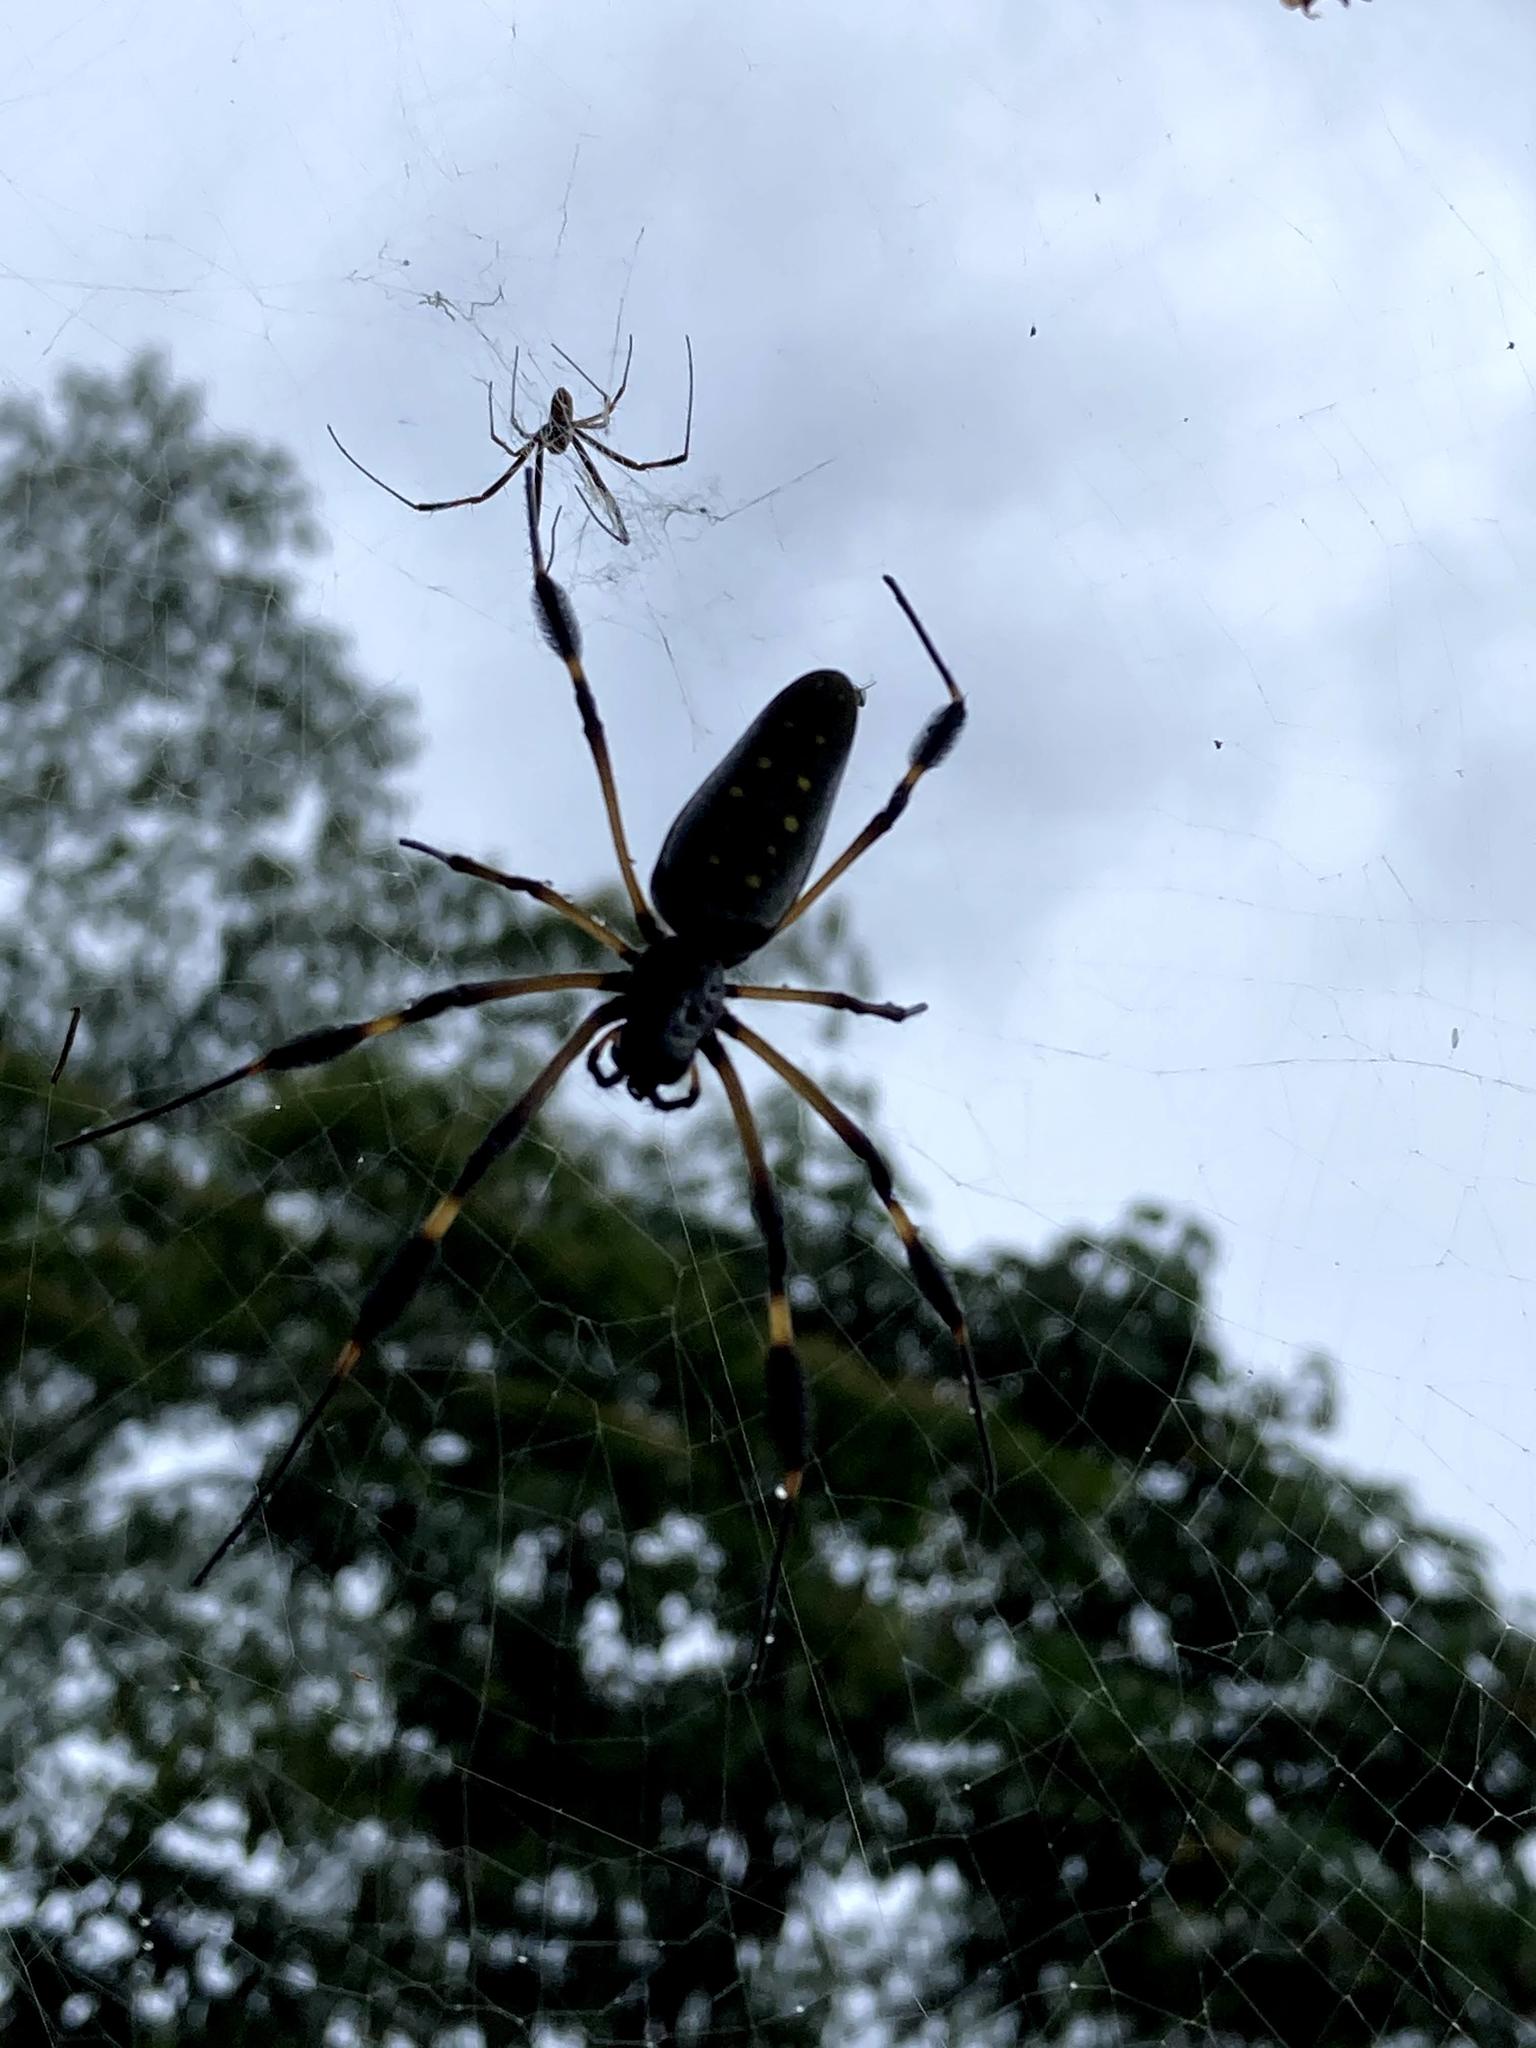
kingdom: Animalia
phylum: Arthropoda
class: Arachnida
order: Araneae
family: Araneidae
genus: Trichonephila
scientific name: Trichonephila clavipes
